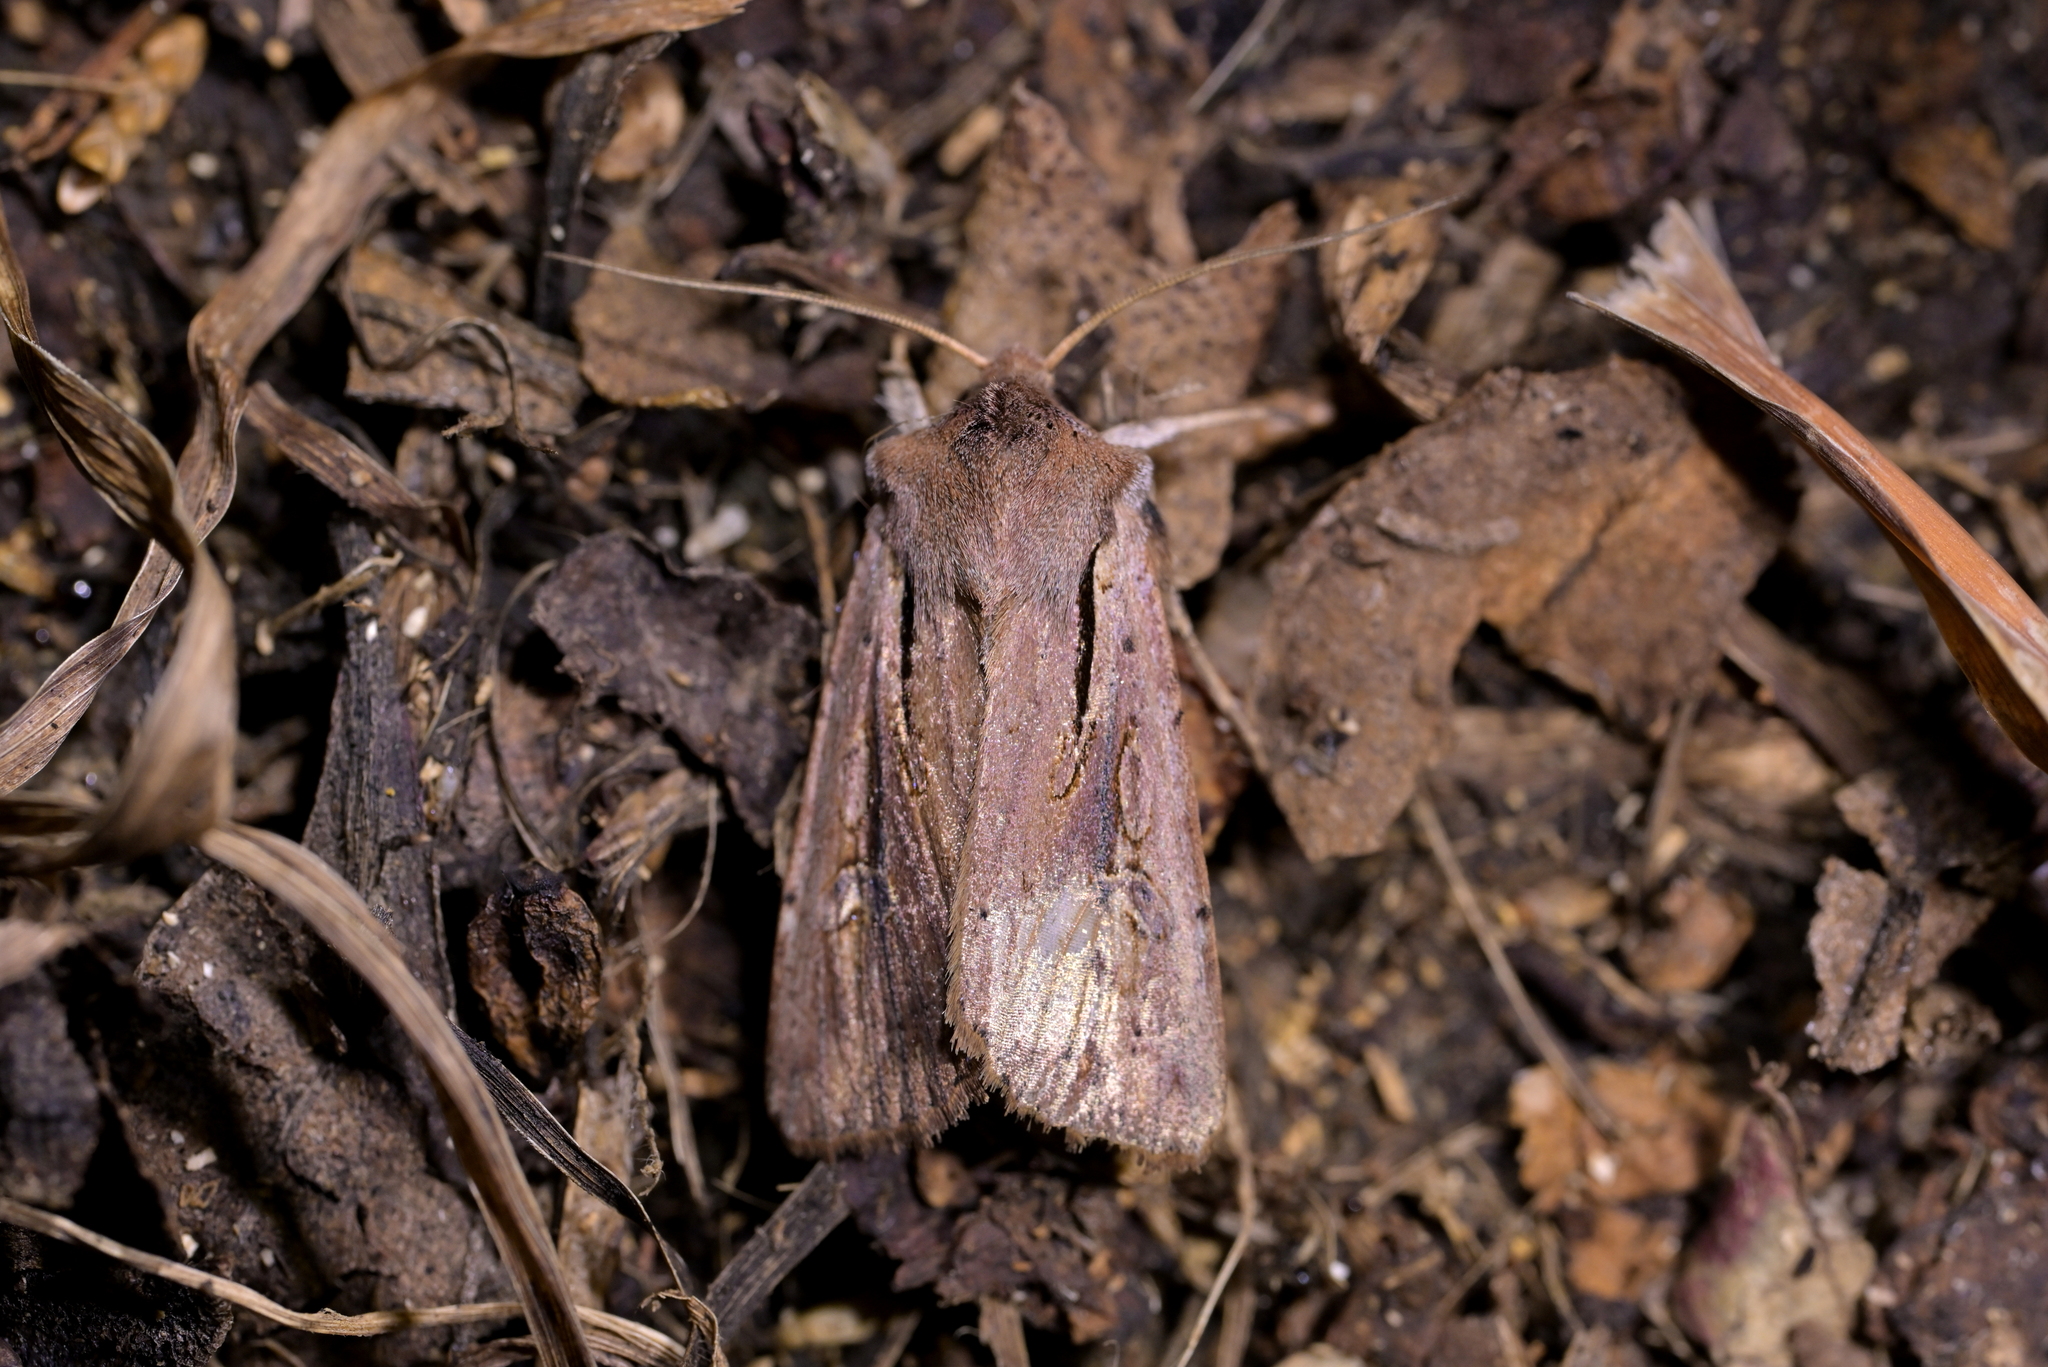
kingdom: Animalia
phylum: Arthropoda
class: Insecta
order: Lepidoptera
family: Noctuidae
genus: Ichneutica
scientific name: Ichneutica atristriga
